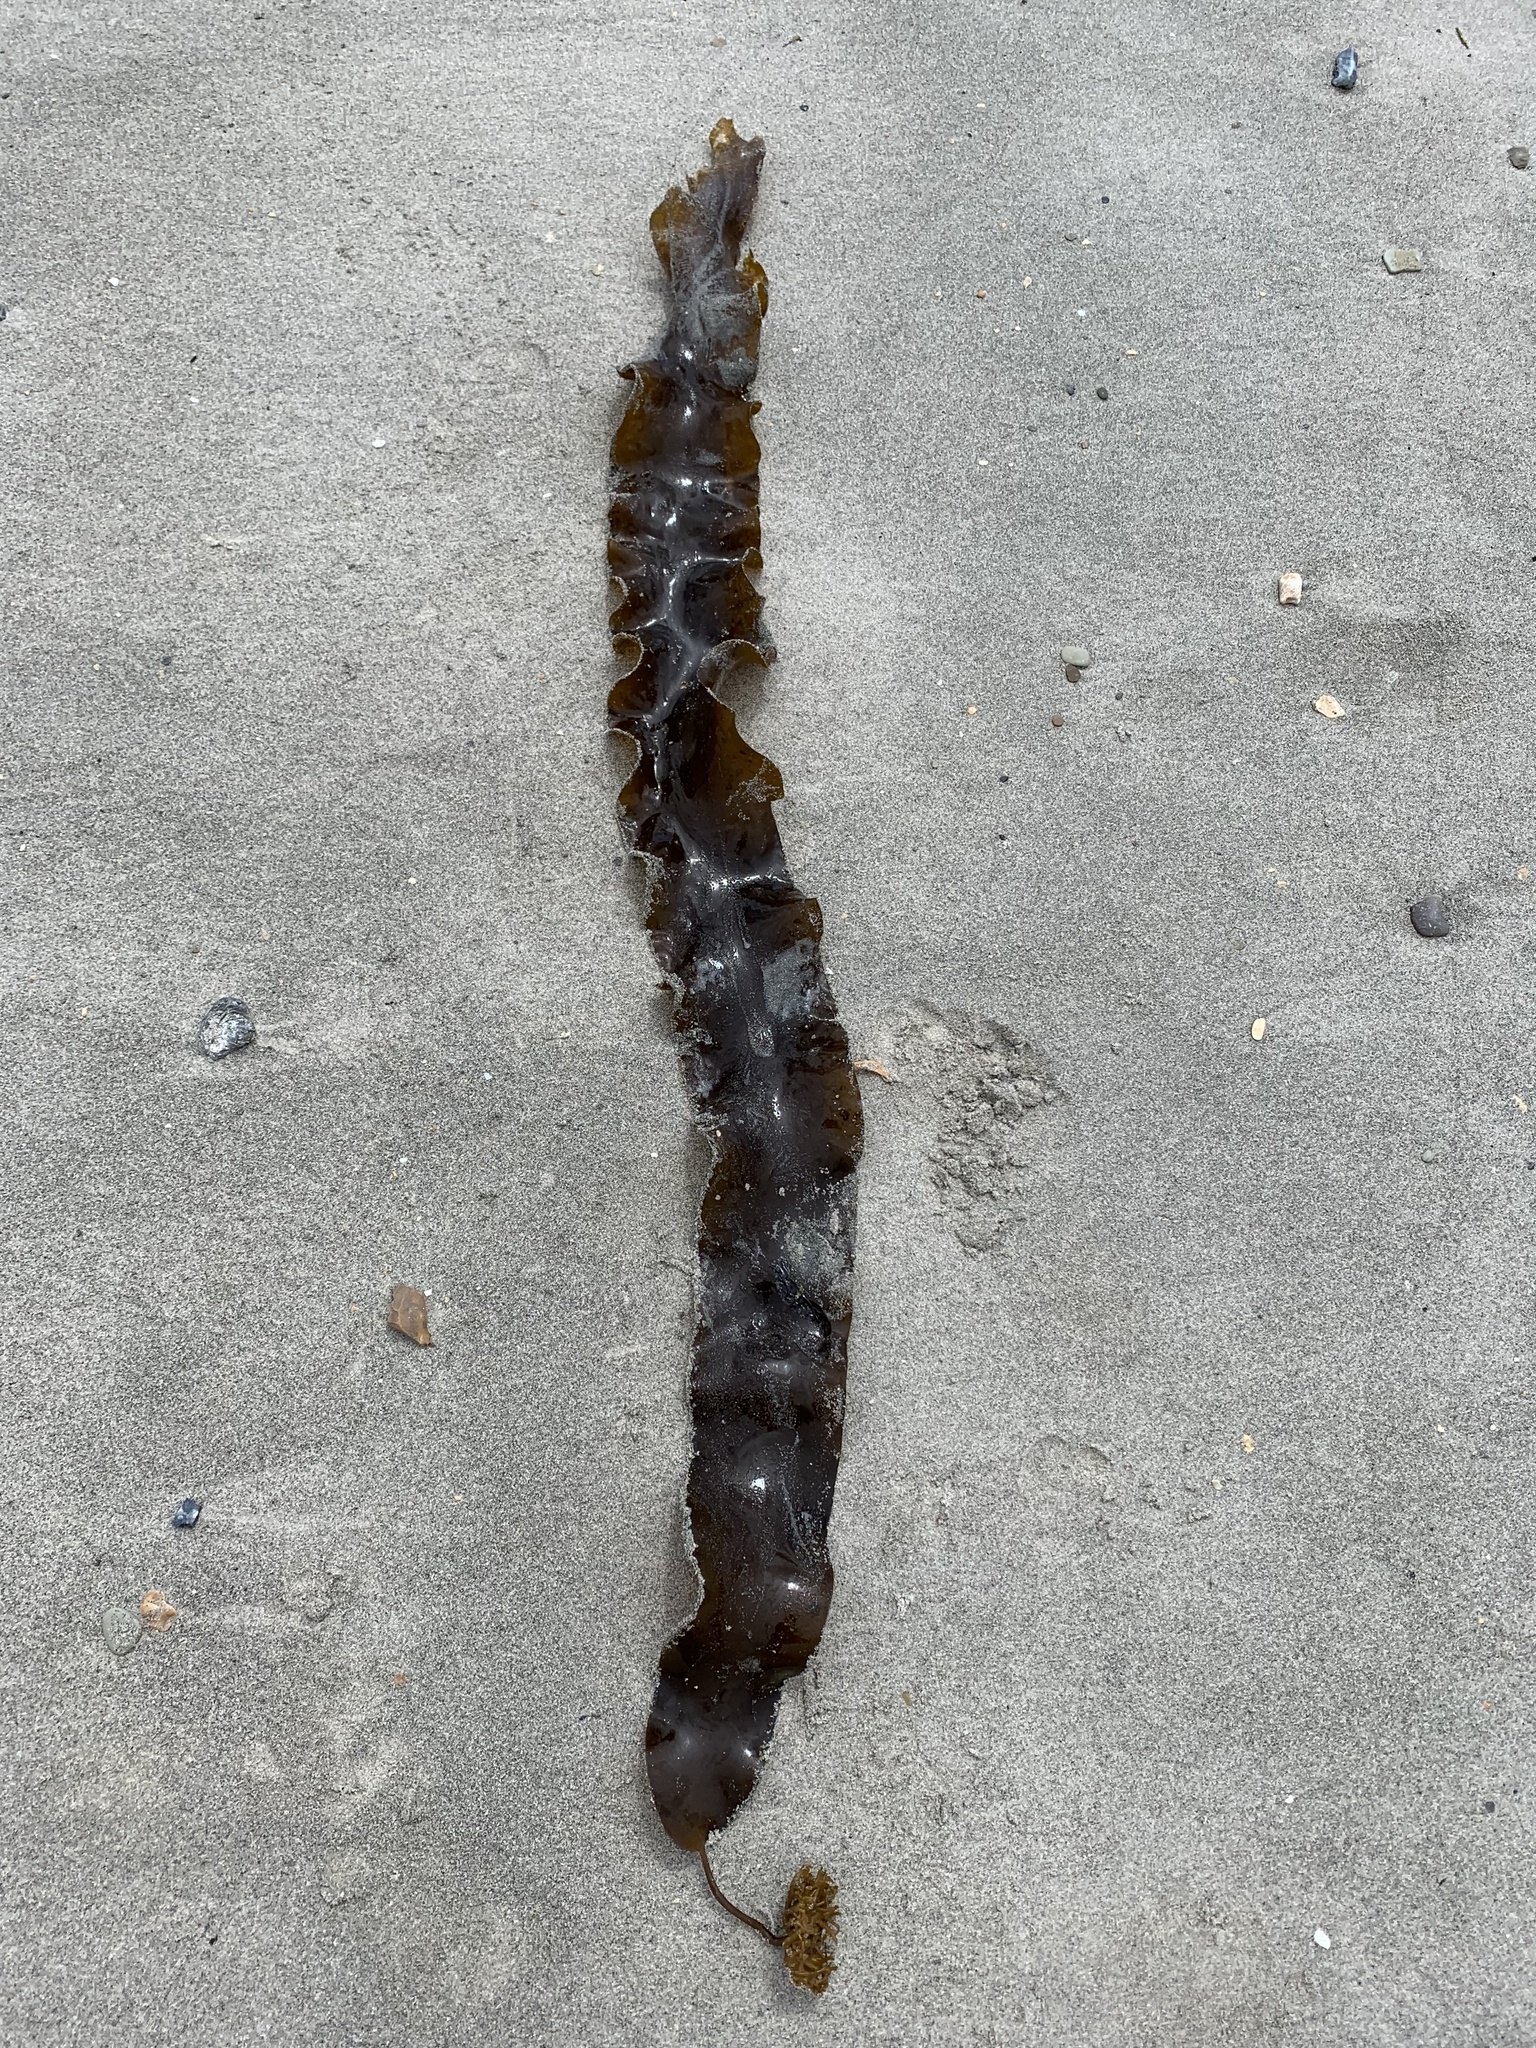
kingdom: Chromista
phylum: Ochrophyta
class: Phaeophyceae
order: Laminariales
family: Laminariaceae
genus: Saccharina
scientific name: Saccharina latissima
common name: Poor man's weather glass
